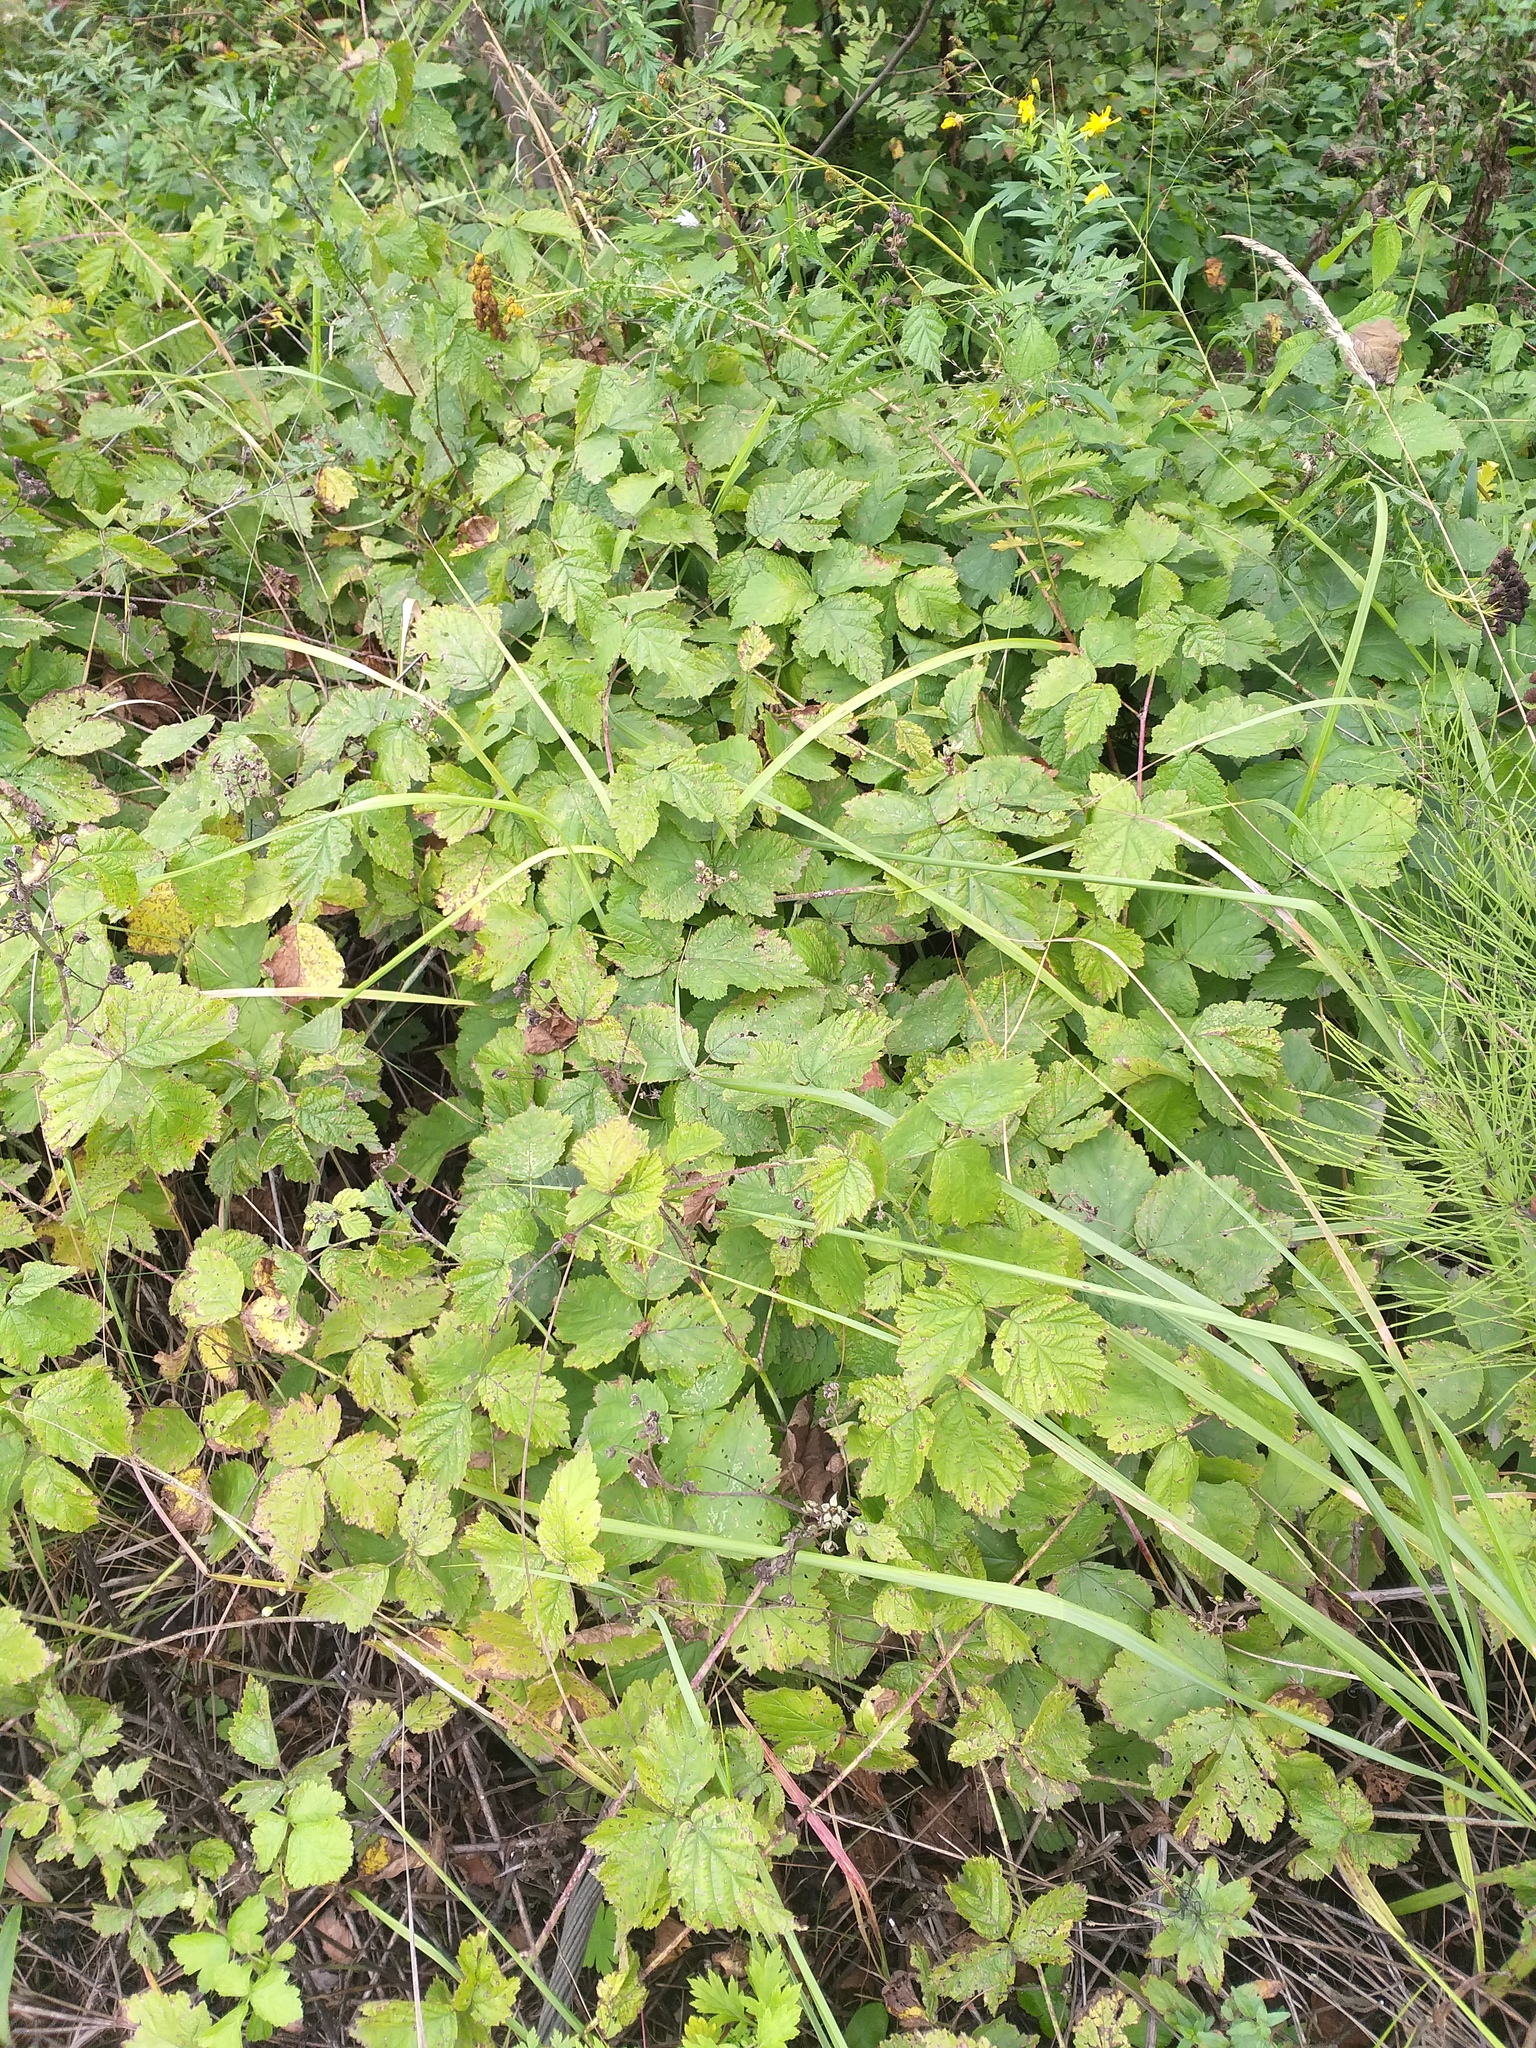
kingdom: Plantae
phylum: Tracheophyta
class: Magnoliopsida
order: Rosales
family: Rosaceae
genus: Rubus
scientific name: Rubus caesius
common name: Dewberry
